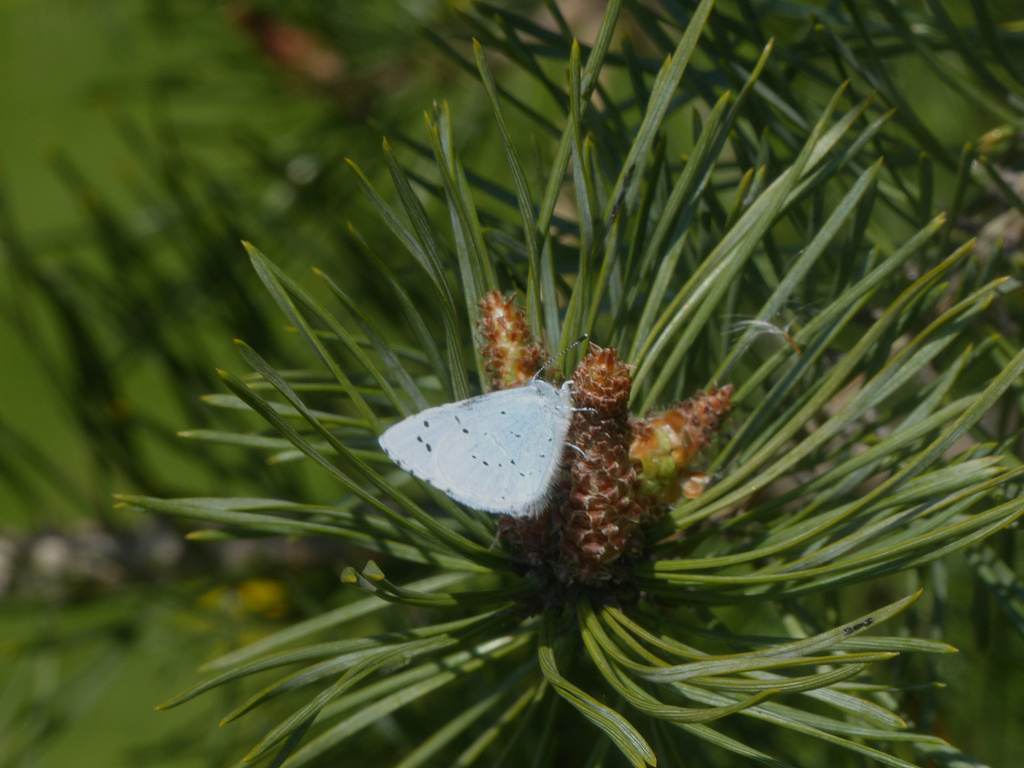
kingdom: Animalia
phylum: Arthropoda
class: Insecta
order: Lepidoptera
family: Lycaenidae
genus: Celastrina
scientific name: Celastrina argiolus
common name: Holly blue
